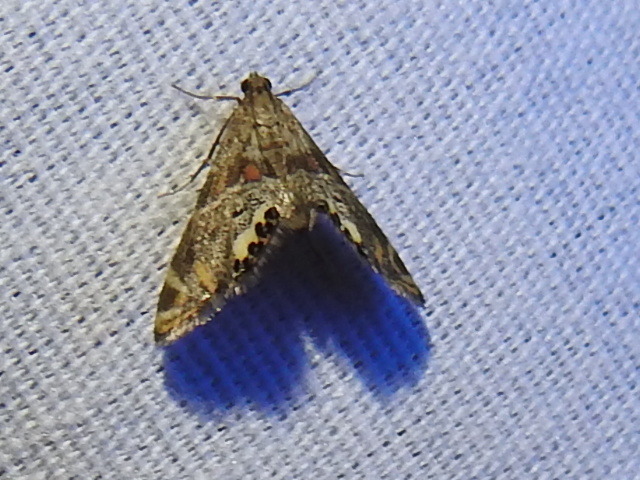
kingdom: Animalia
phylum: Arthropoda
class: Insecta
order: Lepidoptera
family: Crambidae
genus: Petrophila
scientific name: Petrophila jaliscalis
